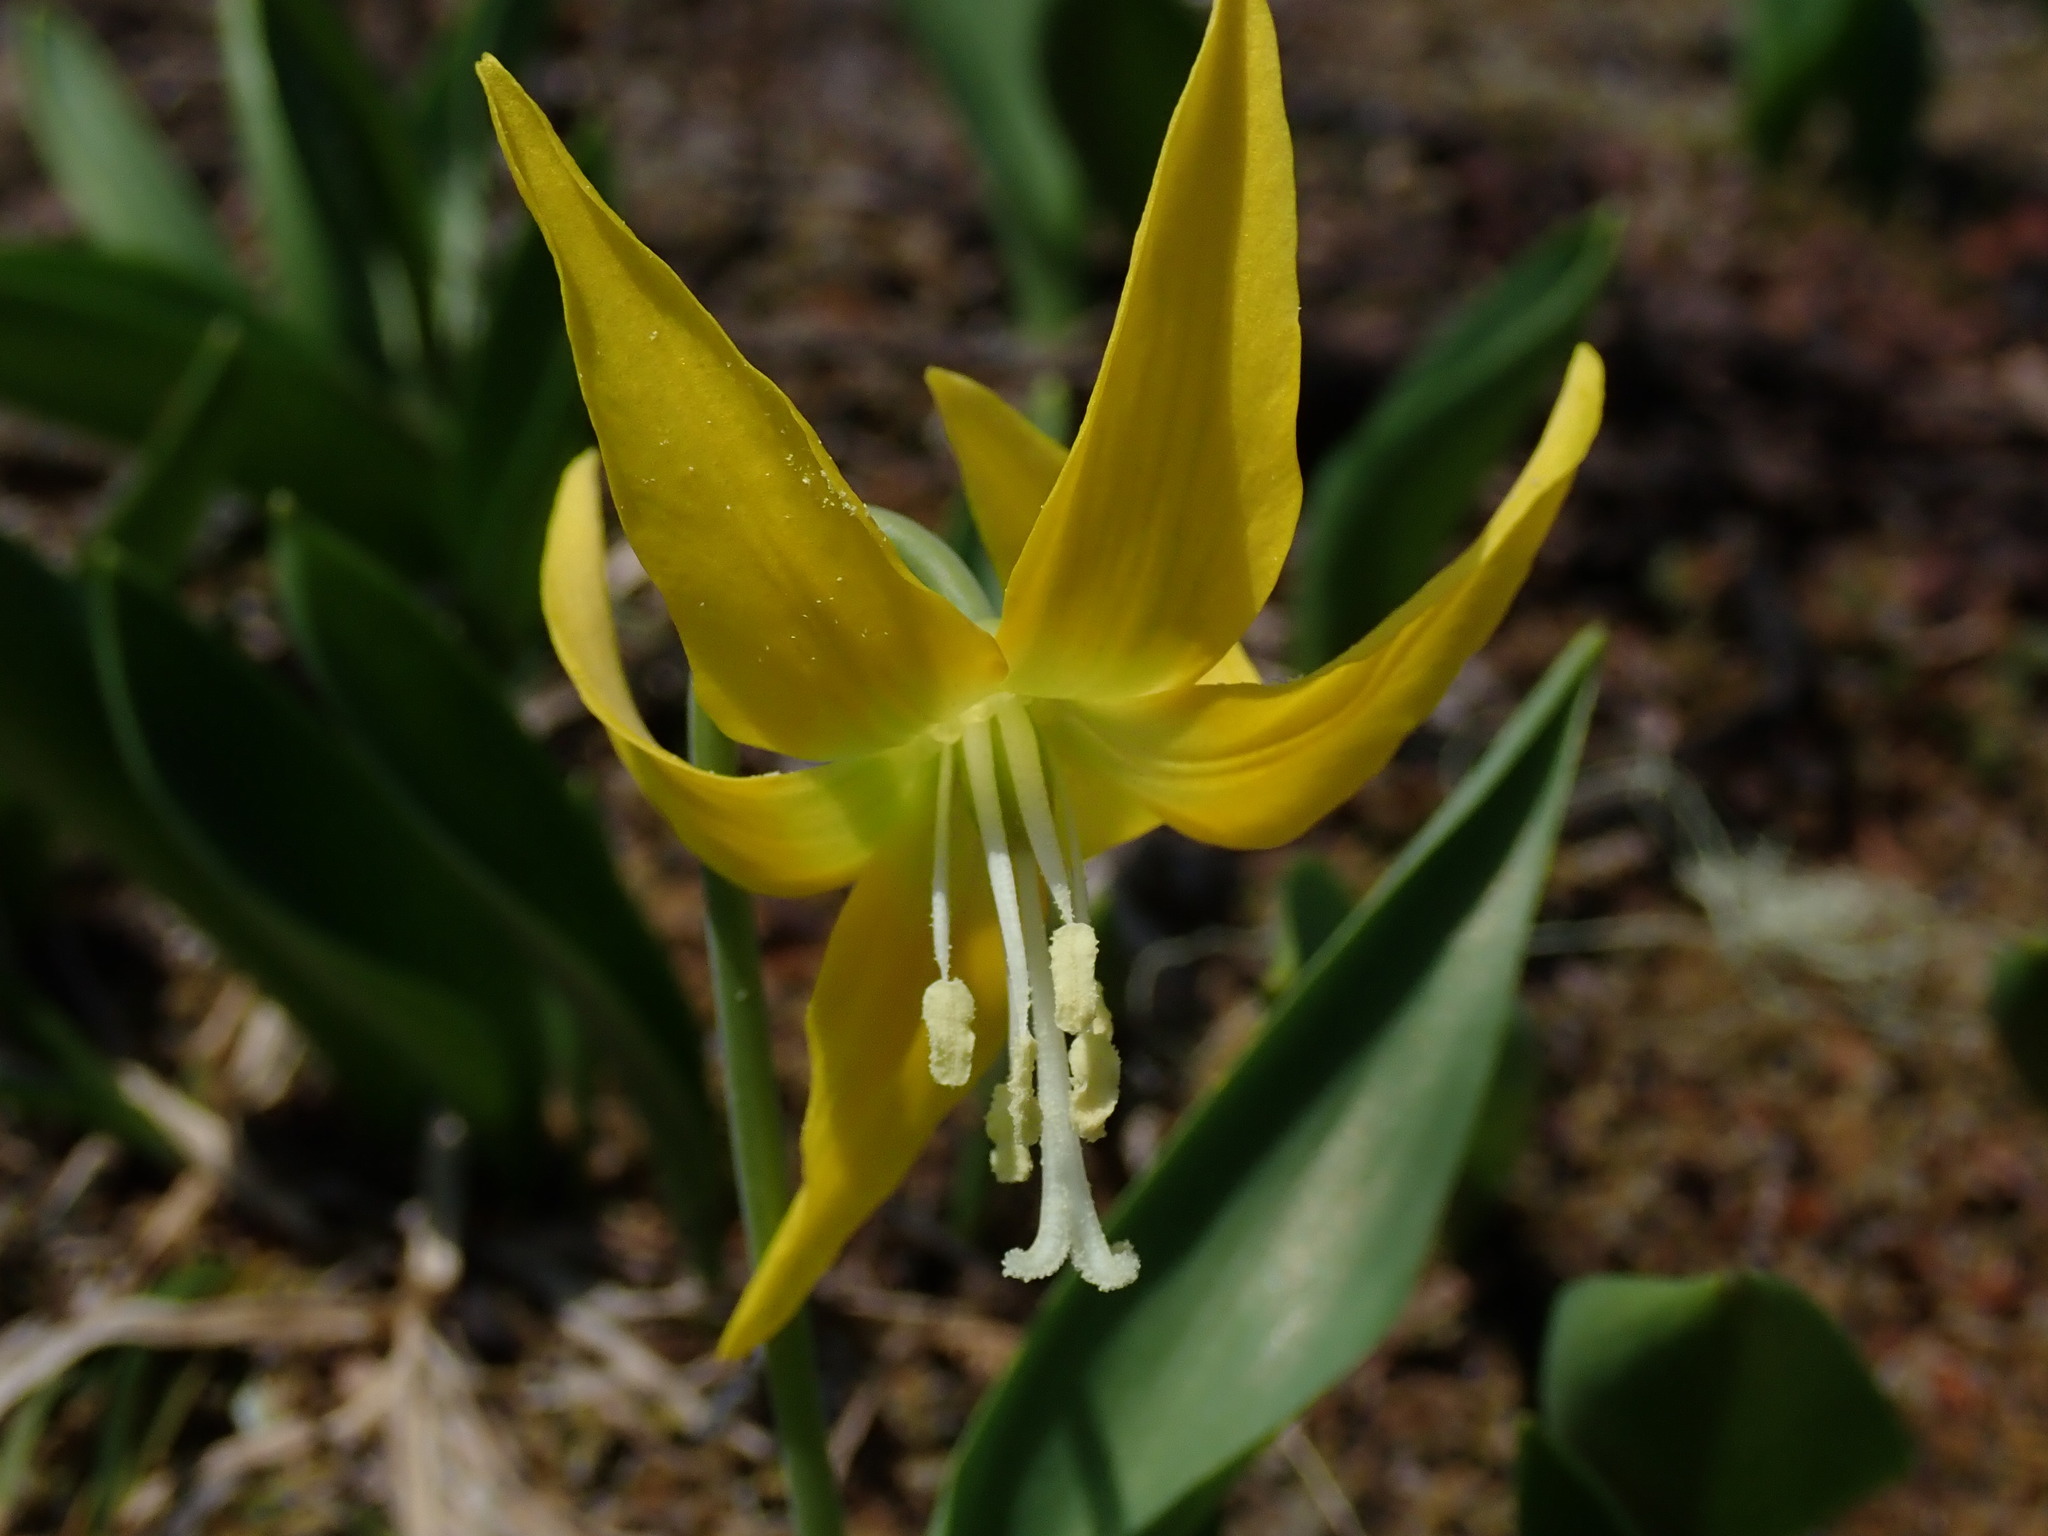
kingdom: Plantae
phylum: Tracheophyta
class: Liliopsida
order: Liliales
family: Liliaceae
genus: Erythronium
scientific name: Erythronium grandiflorum
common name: Avalanche-lily
